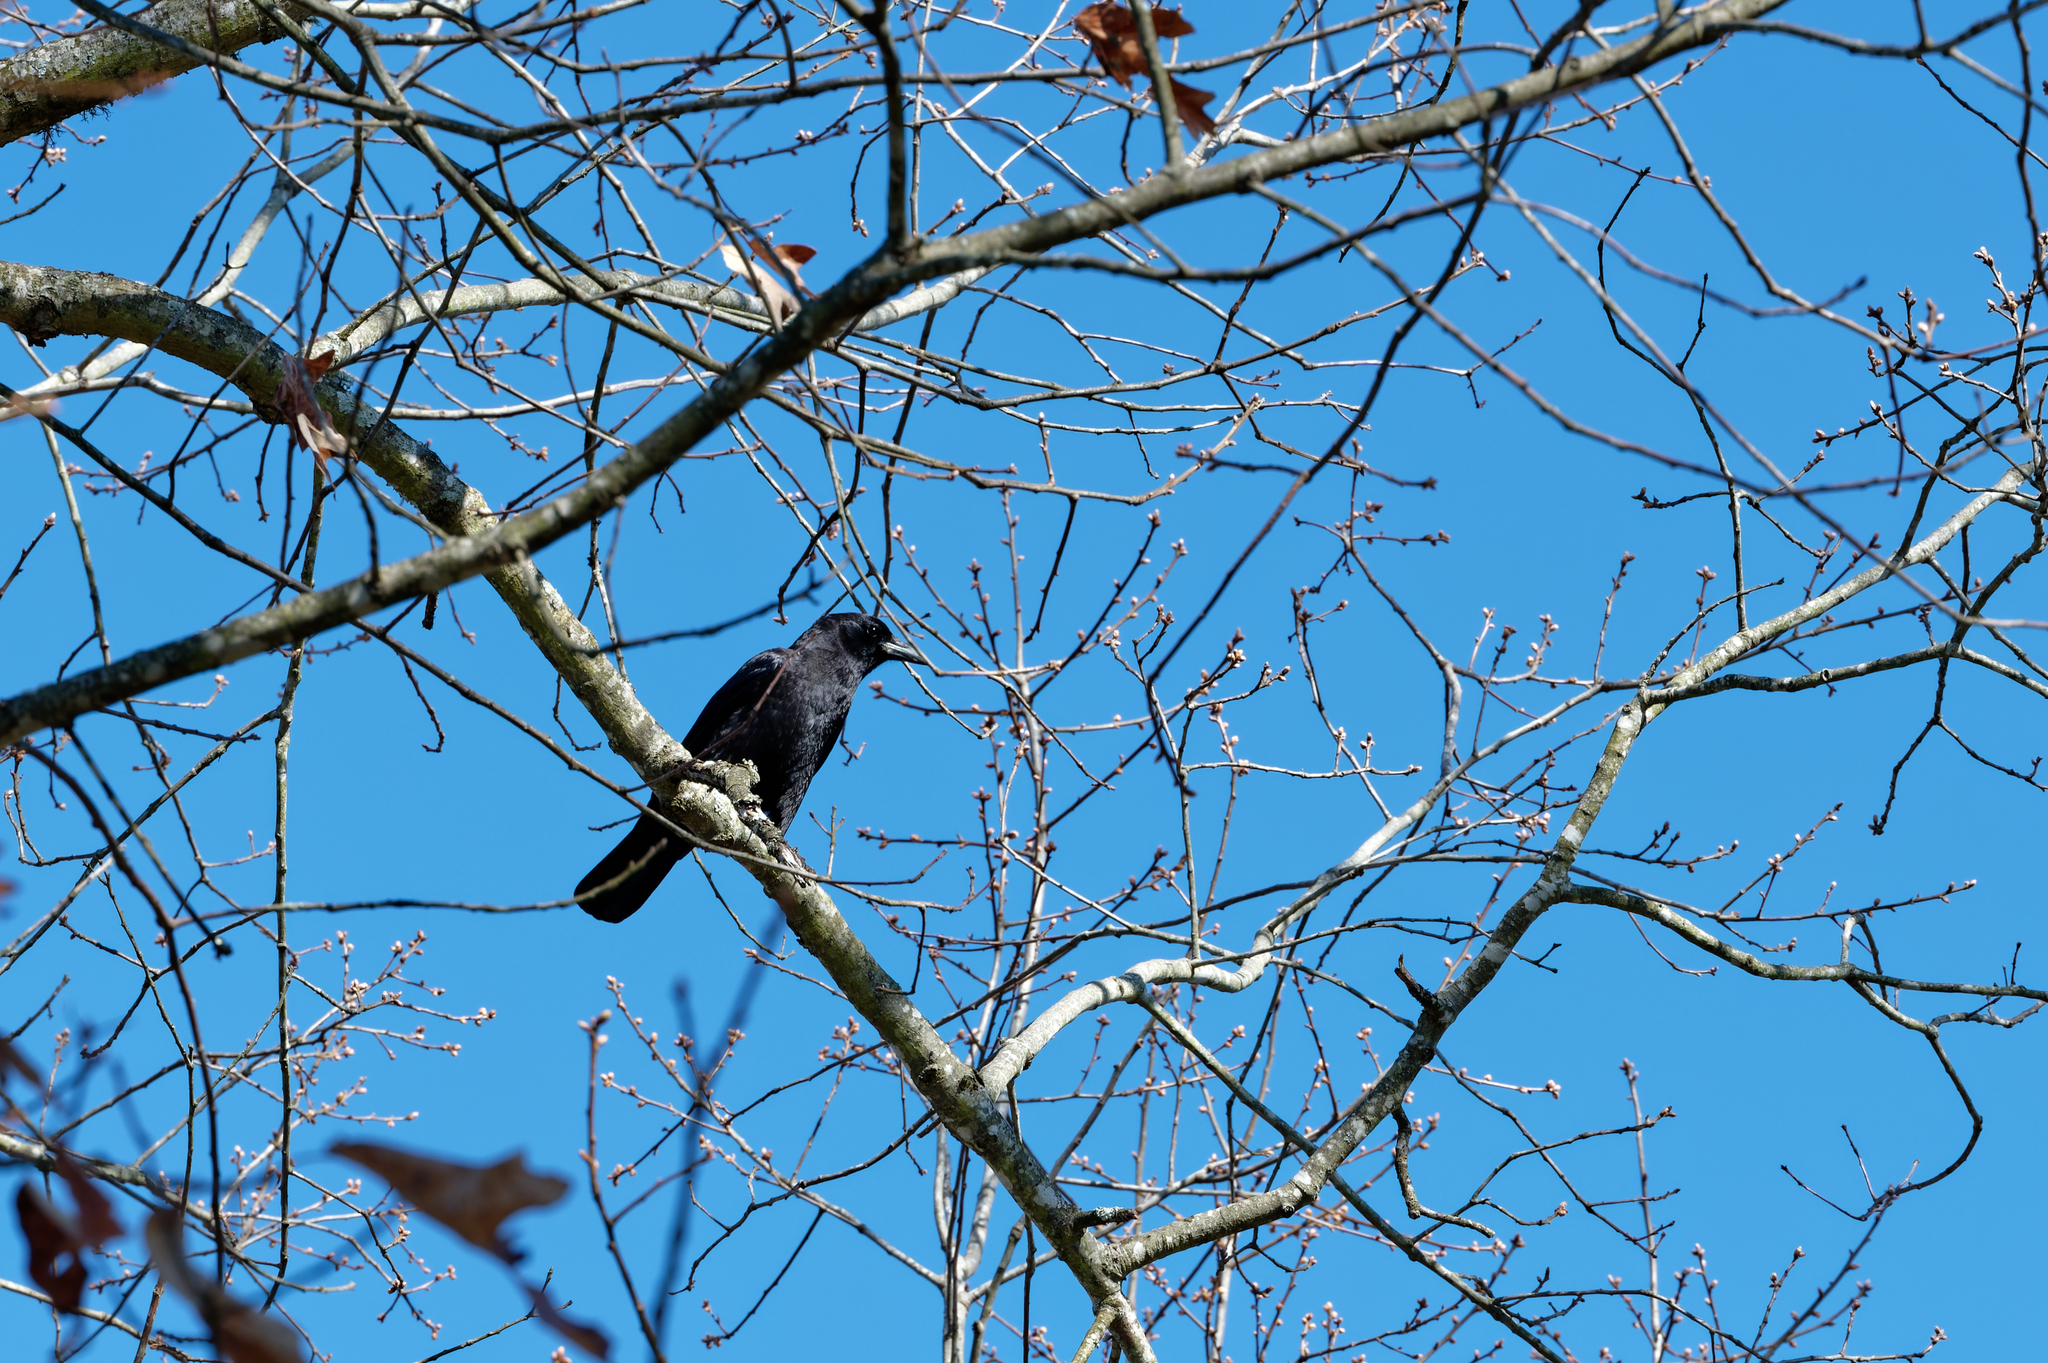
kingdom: Animalia
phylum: Chordata
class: Aves
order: Passeriformes
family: Corvidae
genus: Corvus
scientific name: Corvus brachyrhynchos
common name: American crow
